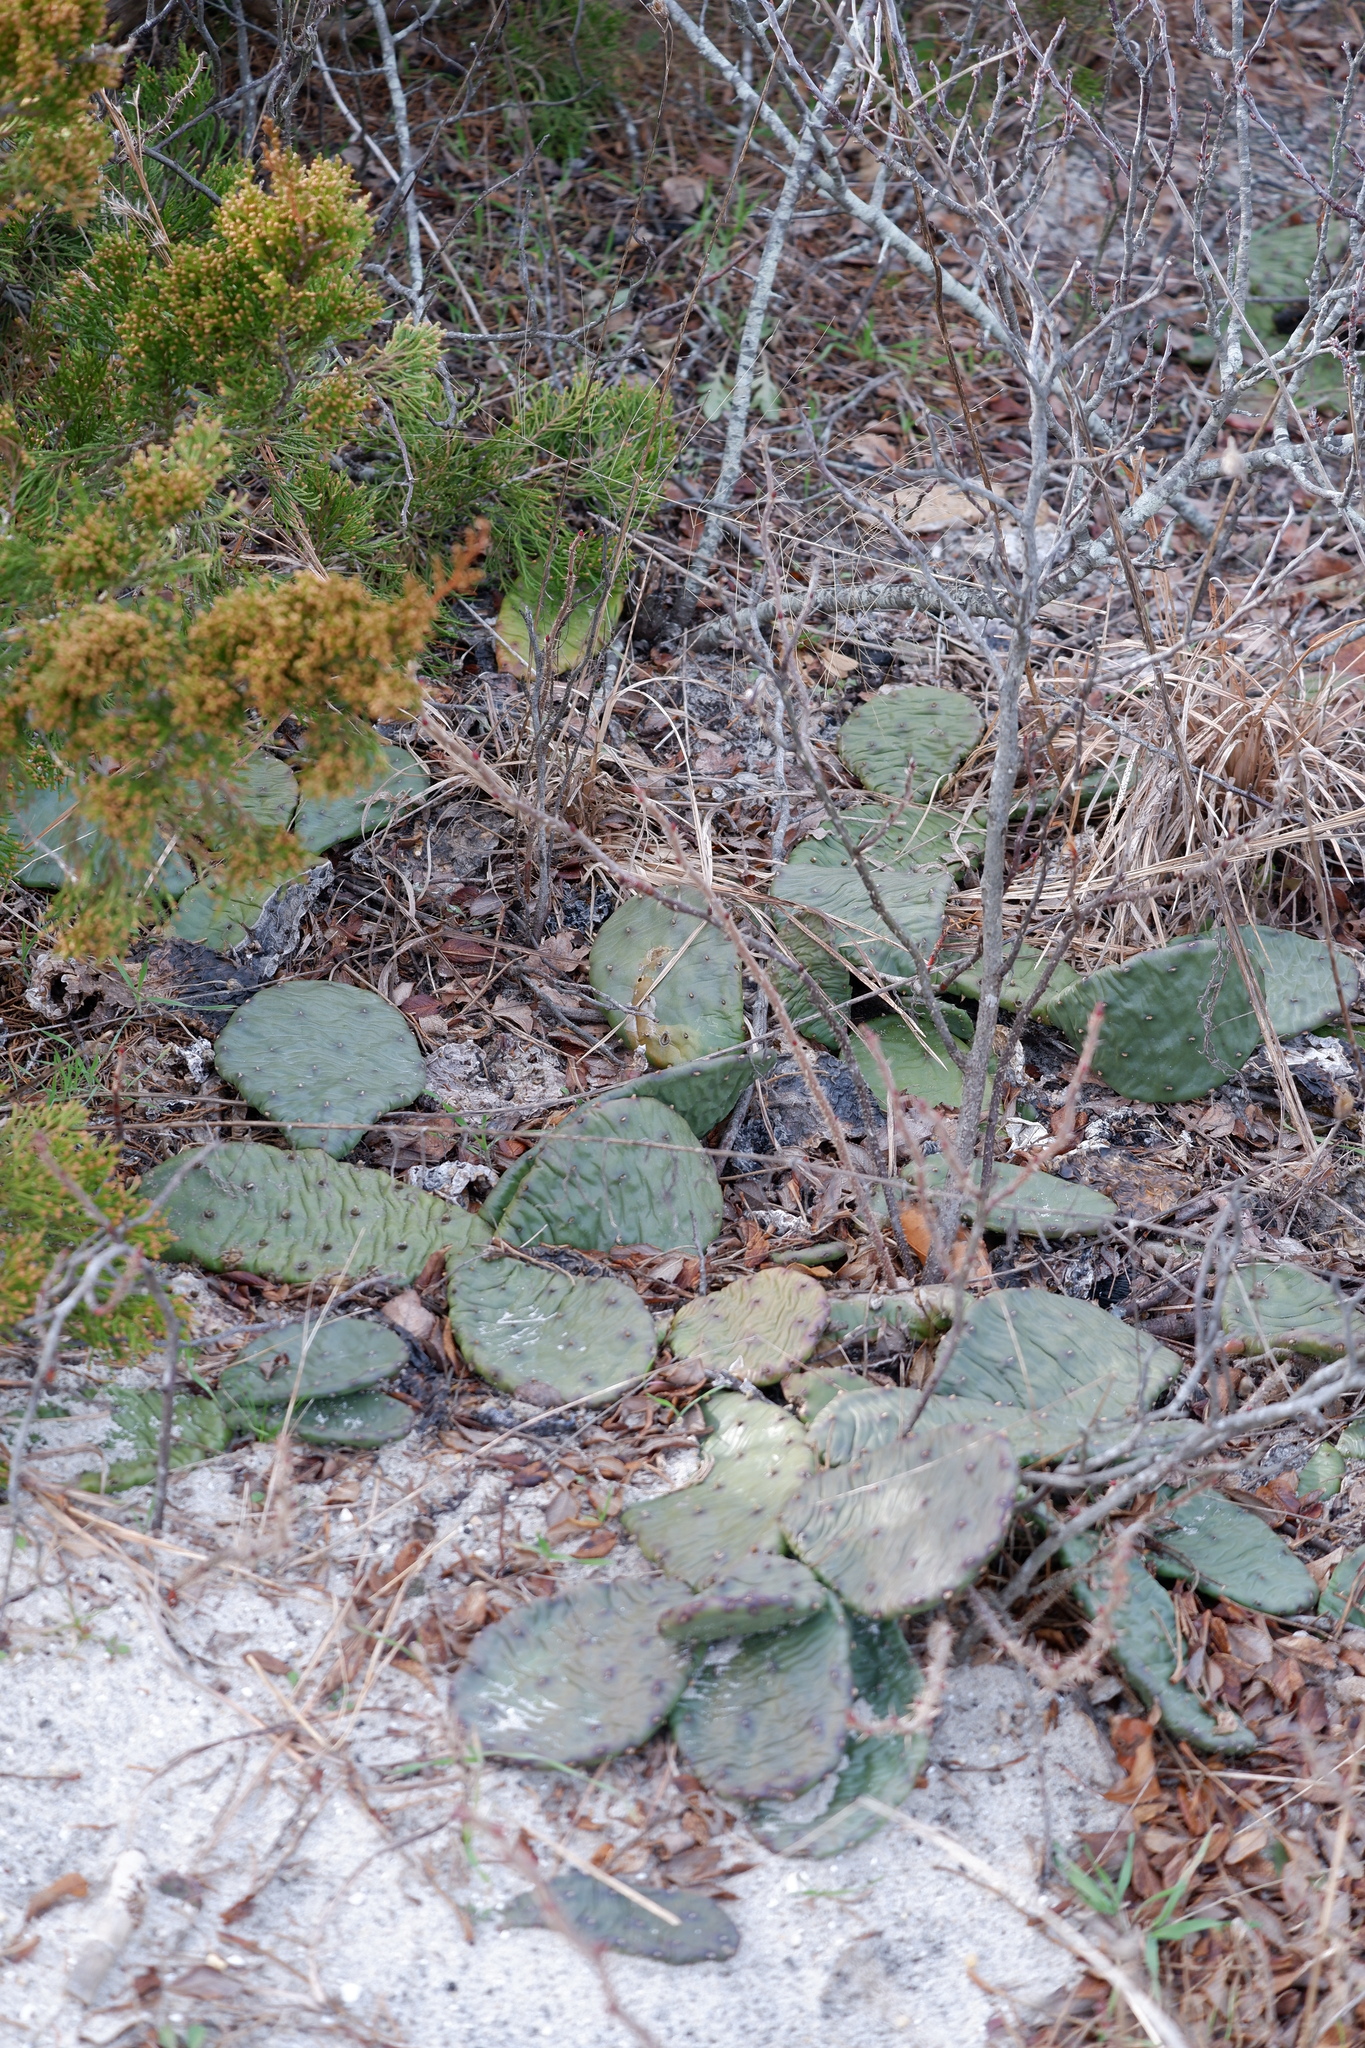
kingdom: Plantae
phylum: Tracheophyta
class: Magnoliopsida
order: Caryophyllales
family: Cactaceae
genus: Opuntia
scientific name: Opuntia humifusa
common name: Eastern prickly-pear
